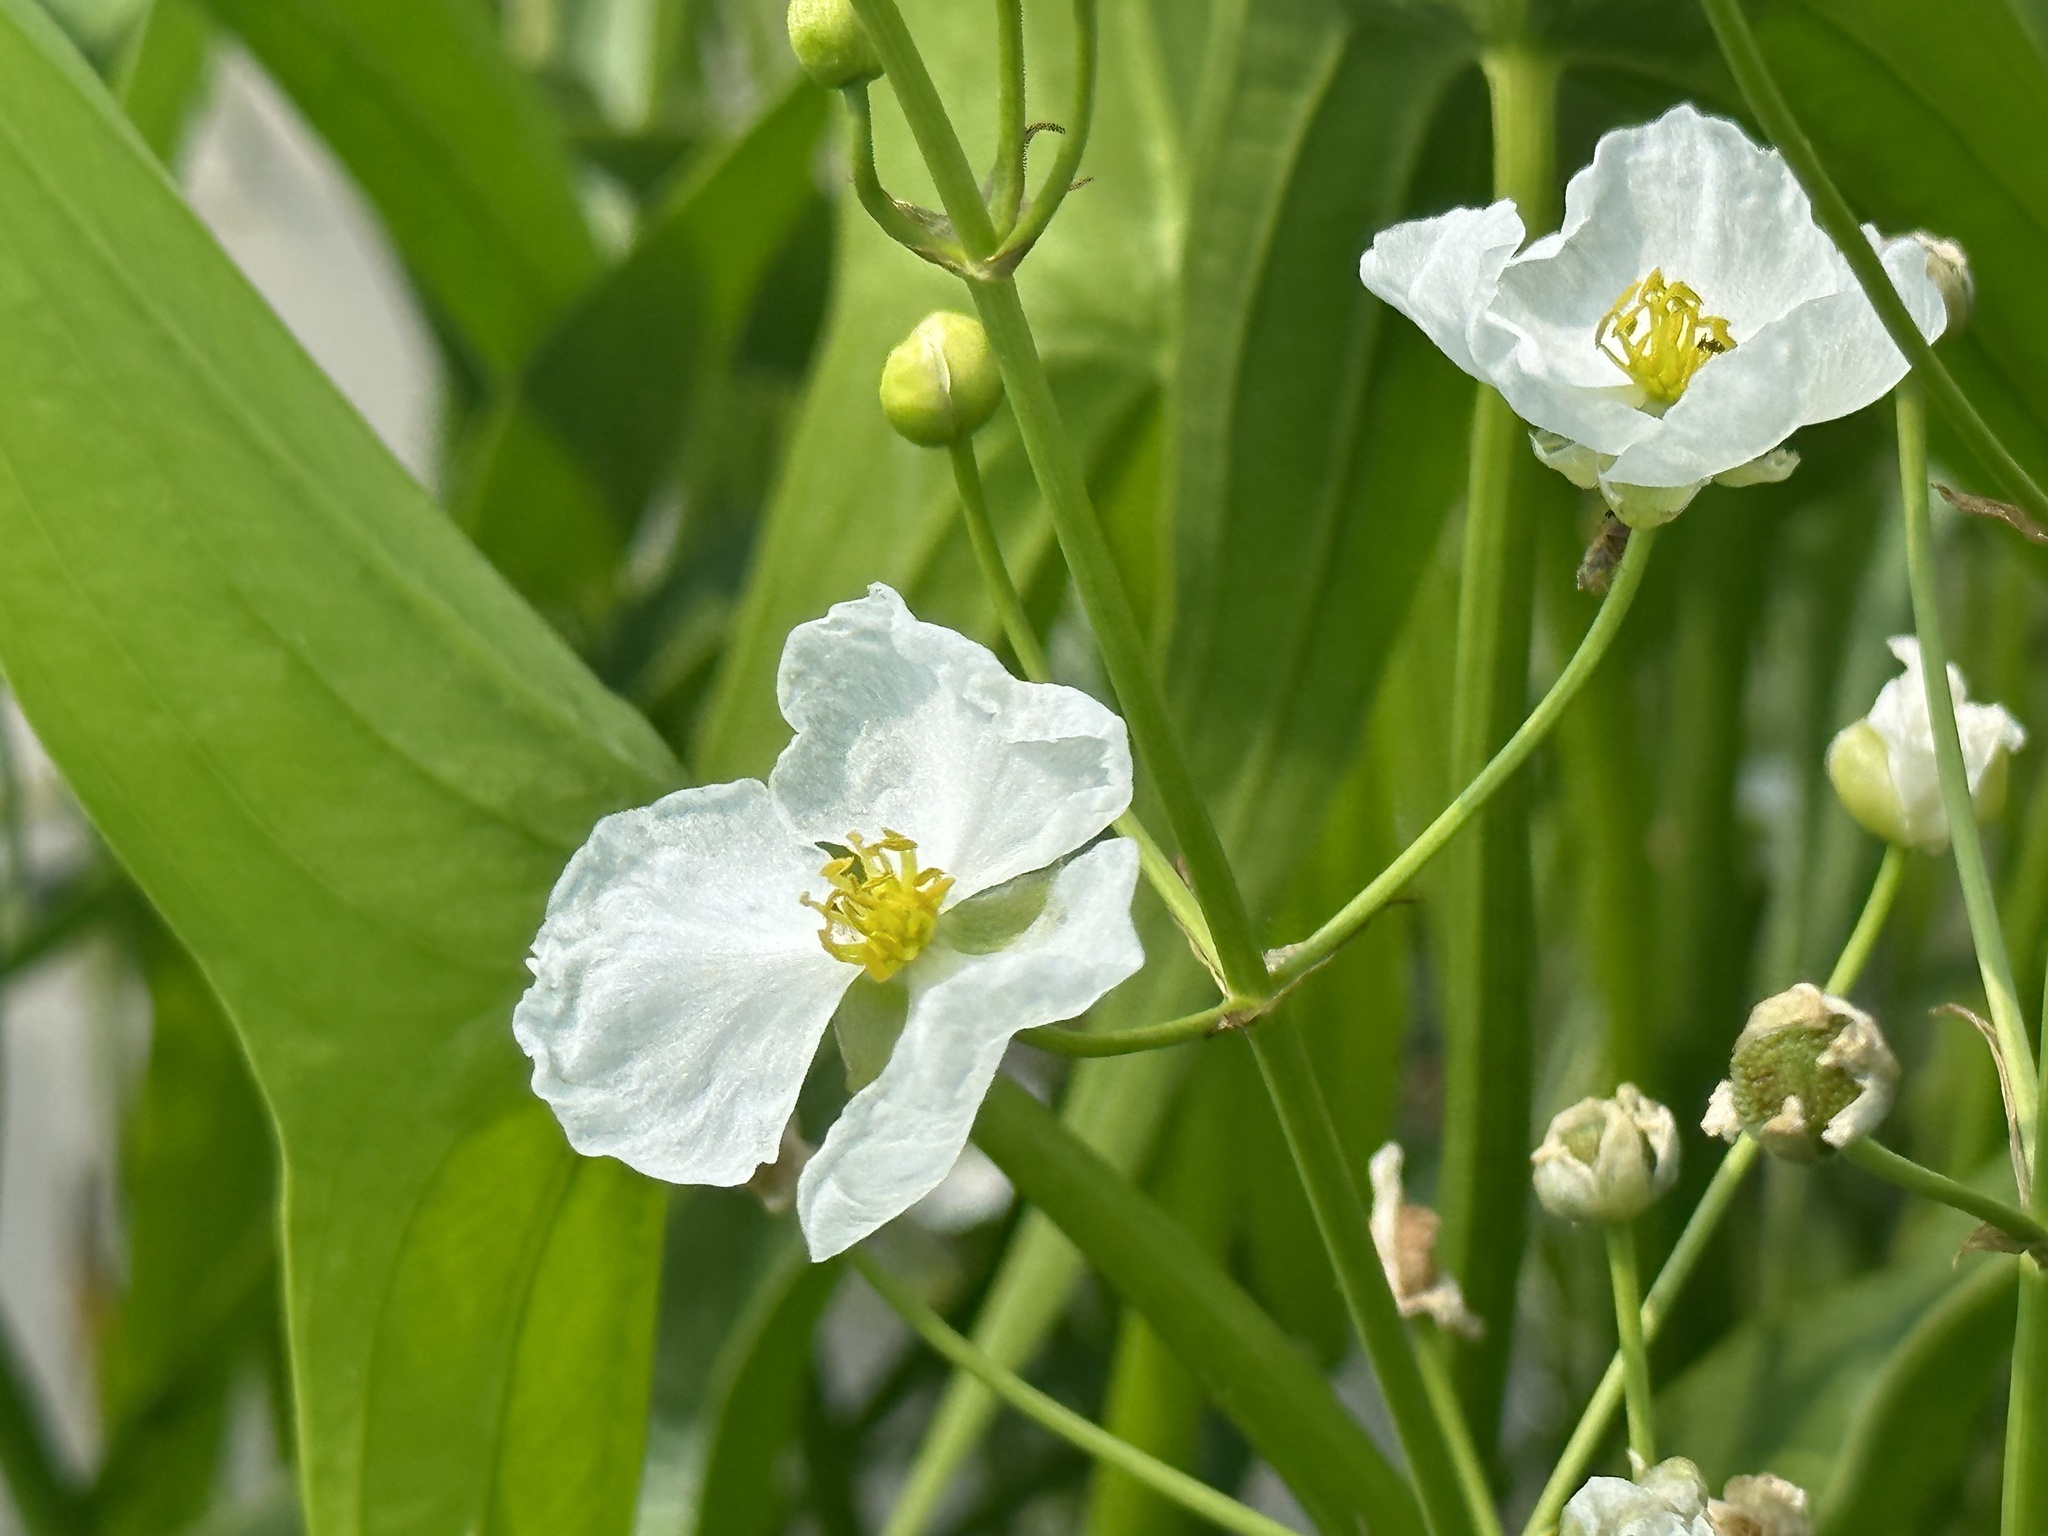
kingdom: Plantae
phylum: Tracheophyta
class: Liliopsida
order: Alismatales
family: Alismataceae
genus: Sagittaria
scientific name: Sagittaria longiloba
